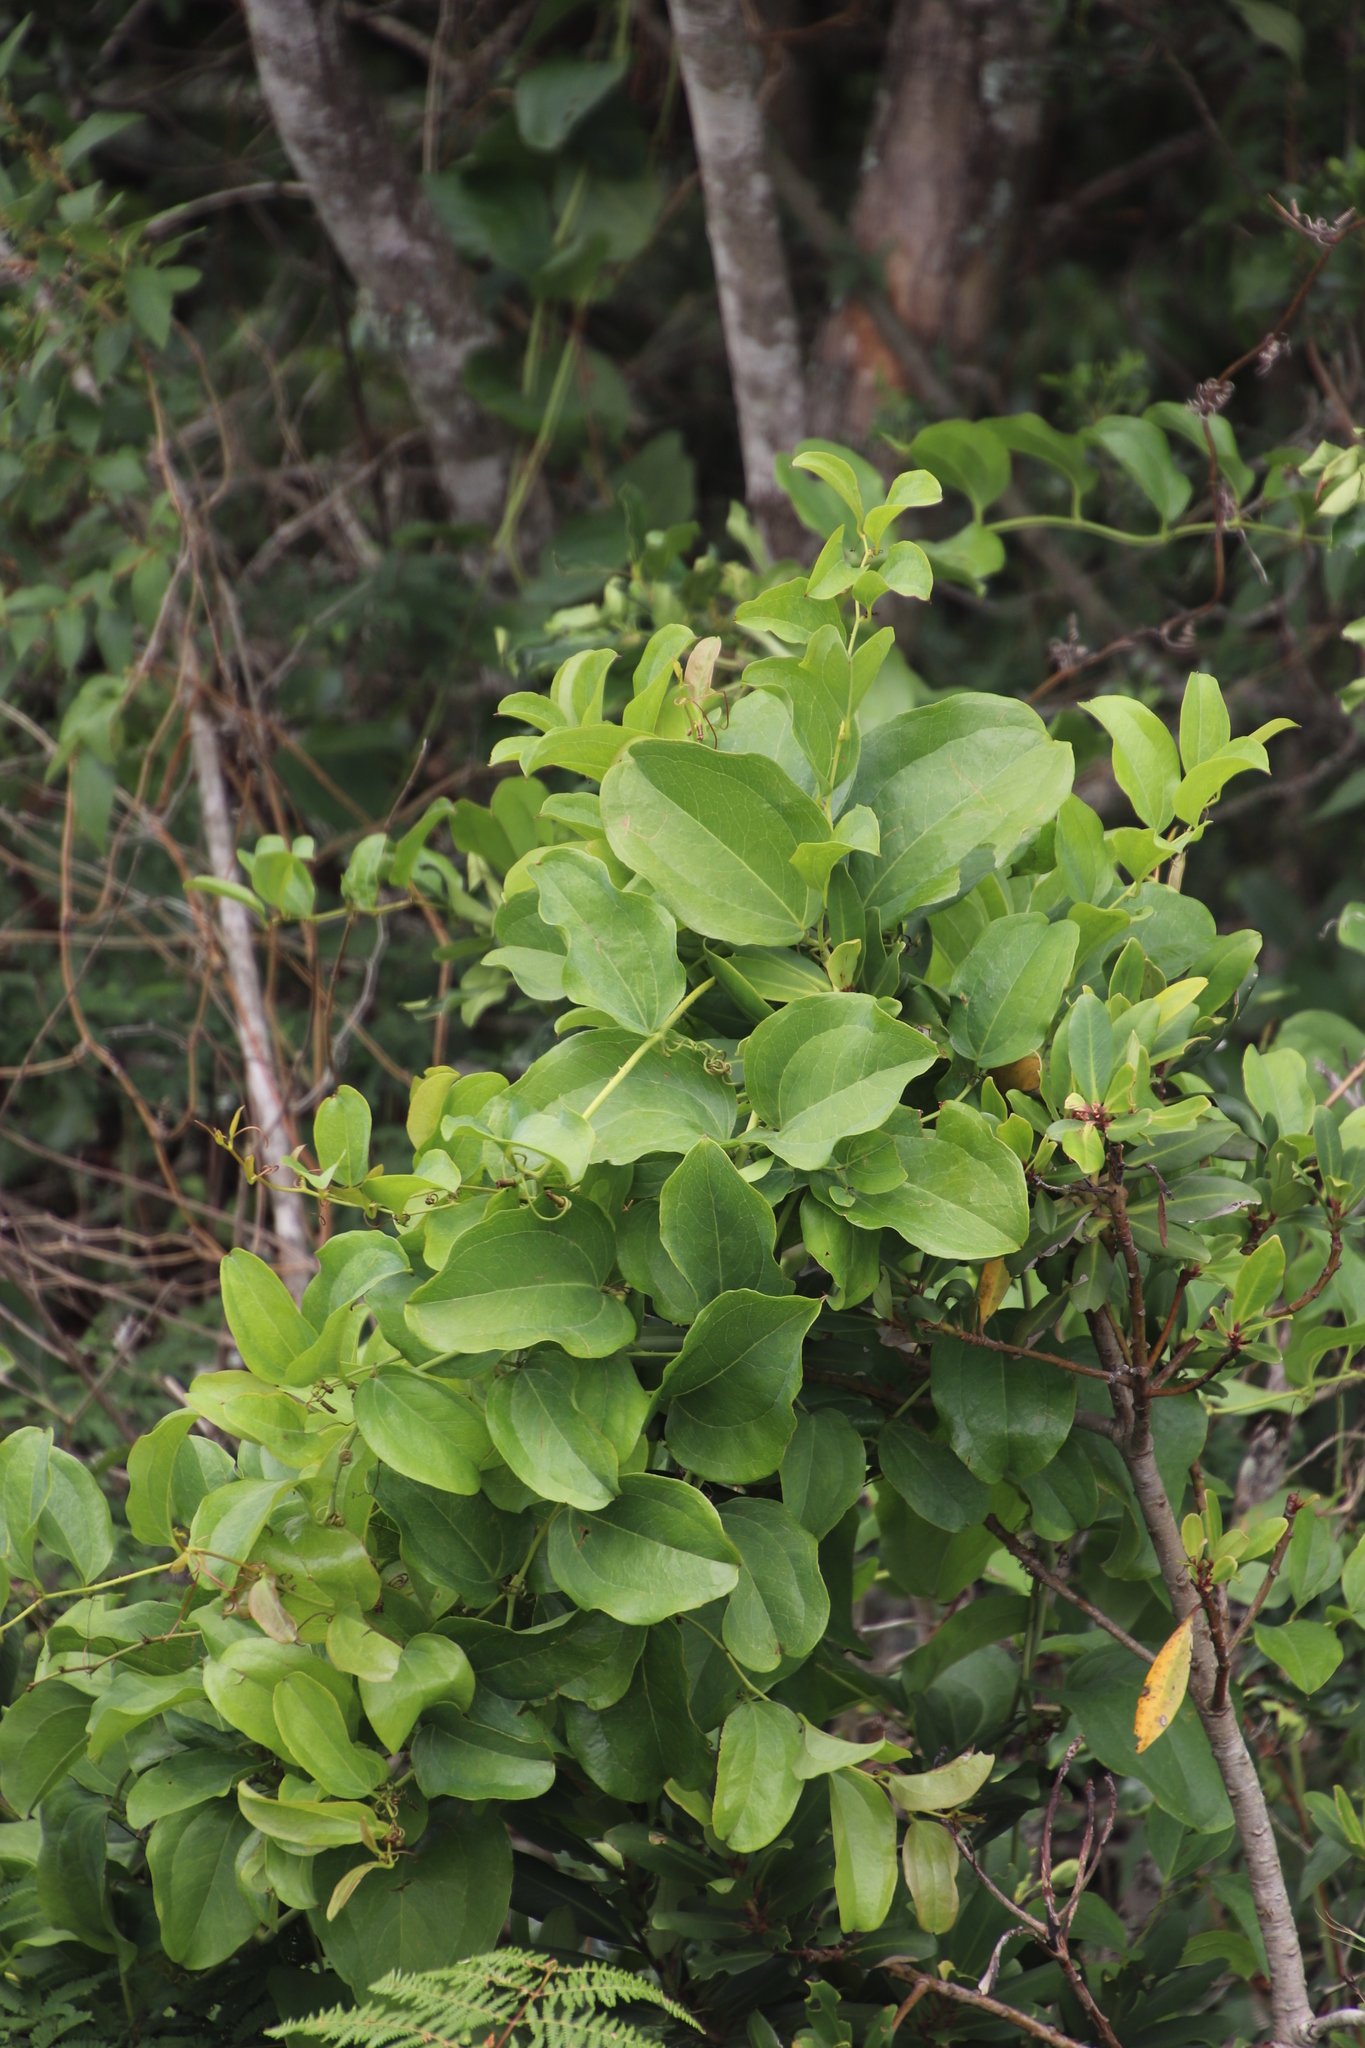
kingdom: Plantae
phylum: Tracheophyta
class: Liliopsida
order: Liliales
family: Smilacaceae
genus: Smilax
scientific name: Smilax anceps
